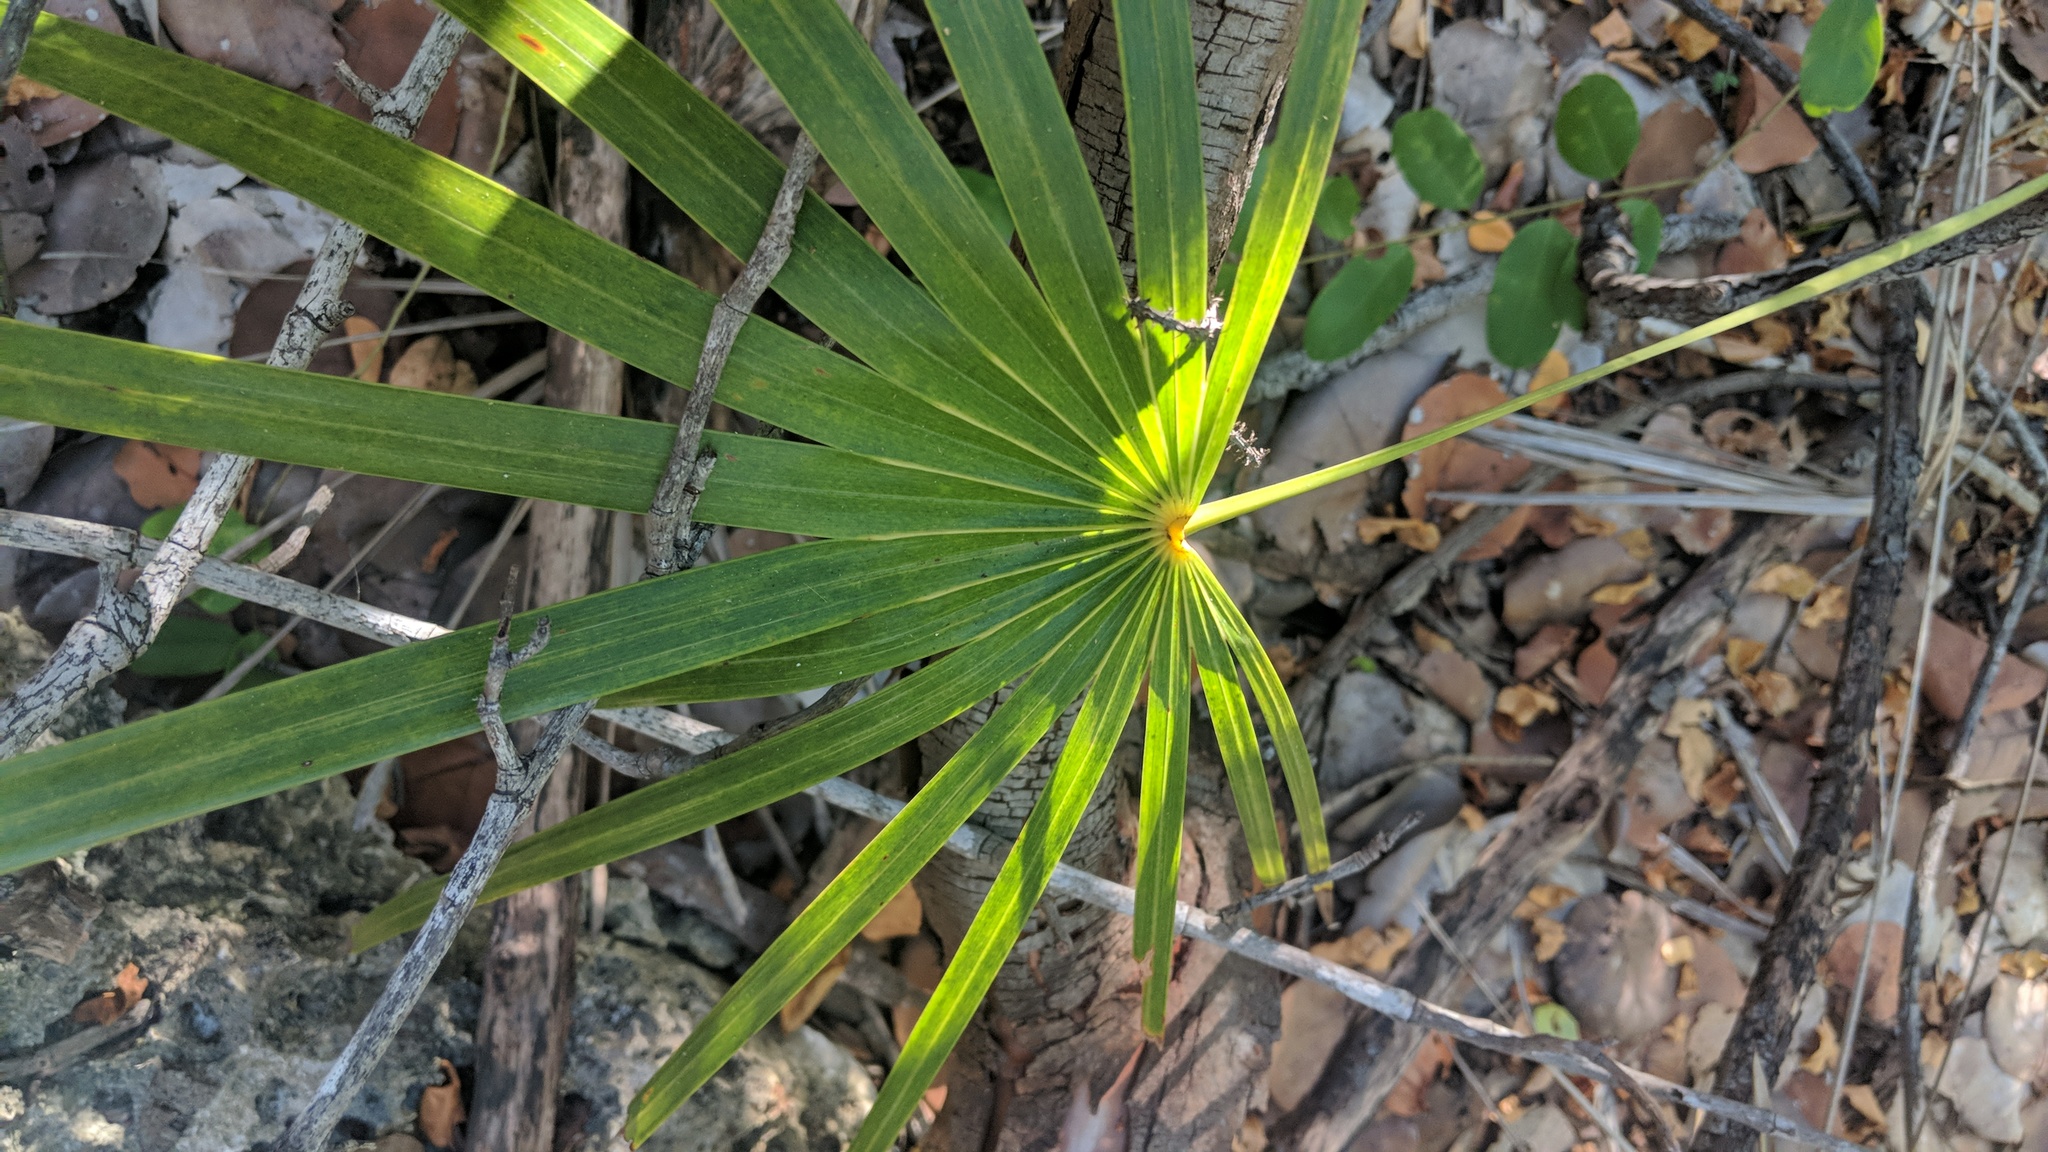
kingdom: Plantae
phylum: Tracheophyta
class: Liliopsida
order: Arecales
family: Arecaceae
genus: Coccothrinax
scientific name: Coccothrinax proctorii
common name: Silver palm
